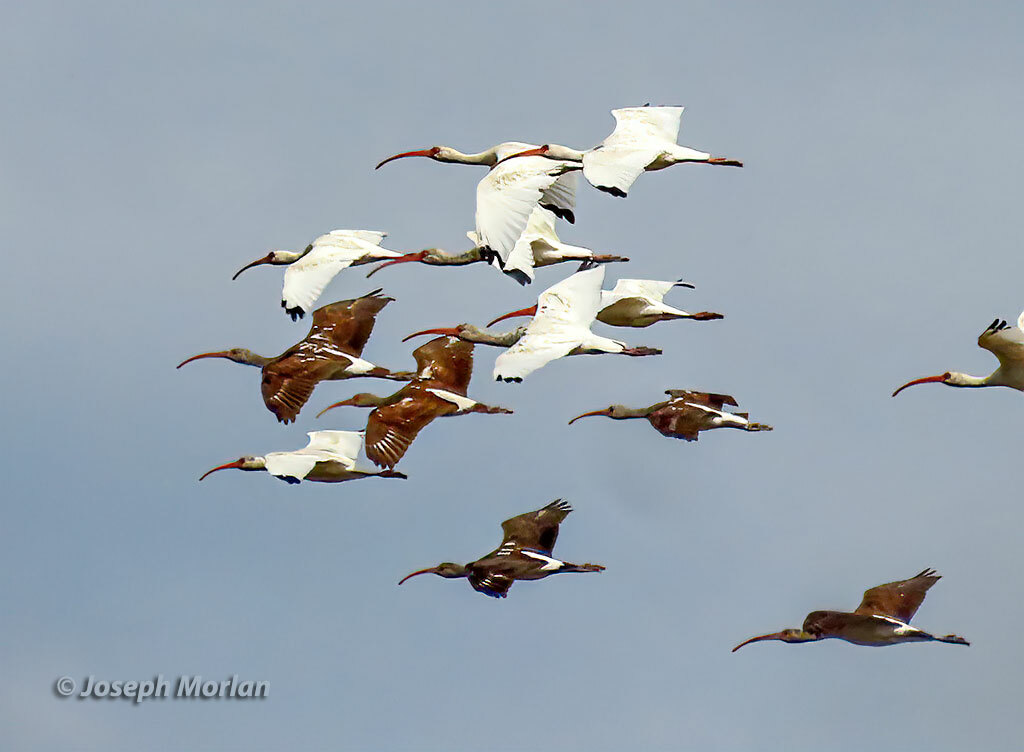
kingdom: Animalia
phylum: Chordata
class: Aves
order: Pelecaniformes
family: Threskiornithidae
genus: Eudocimus
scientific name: Eudocimus albus
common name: White ibis
